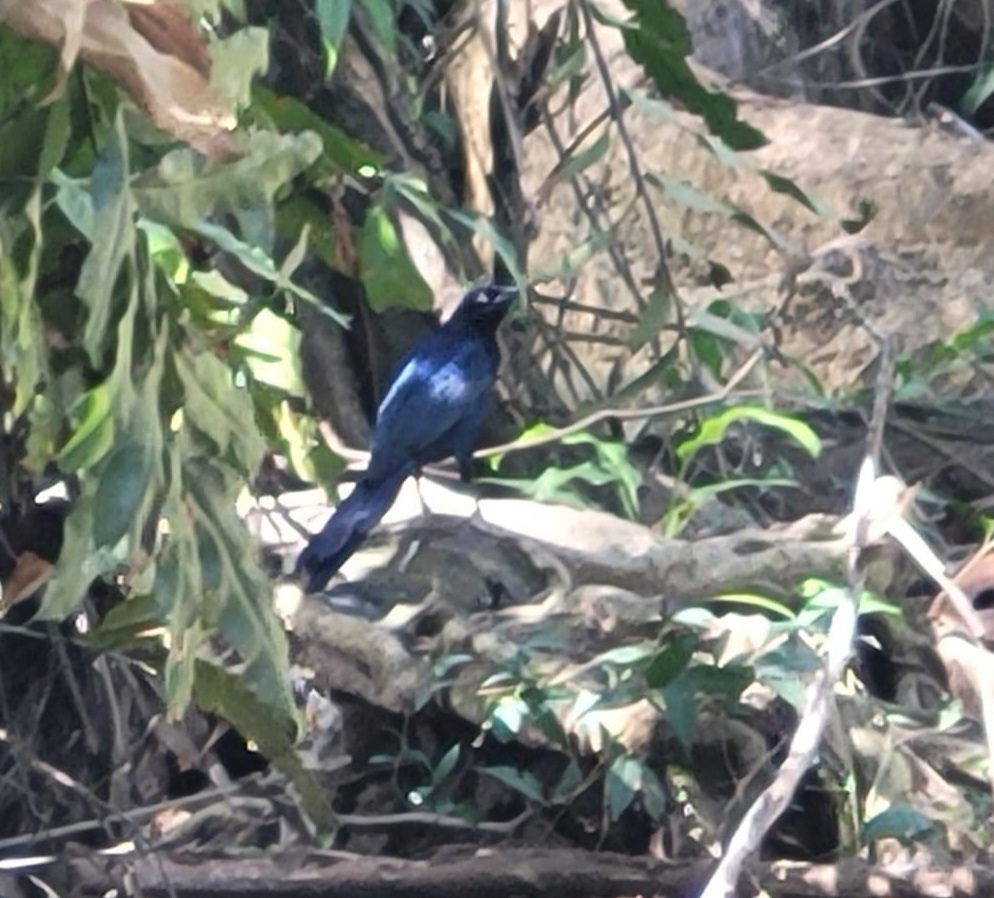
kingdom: Animalia
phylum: Chordata
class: Aves
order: Passeriformes
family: Icteridae
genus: Quiscalus
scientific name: Quiscalus mexicanus
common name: Great-tailed grackle
